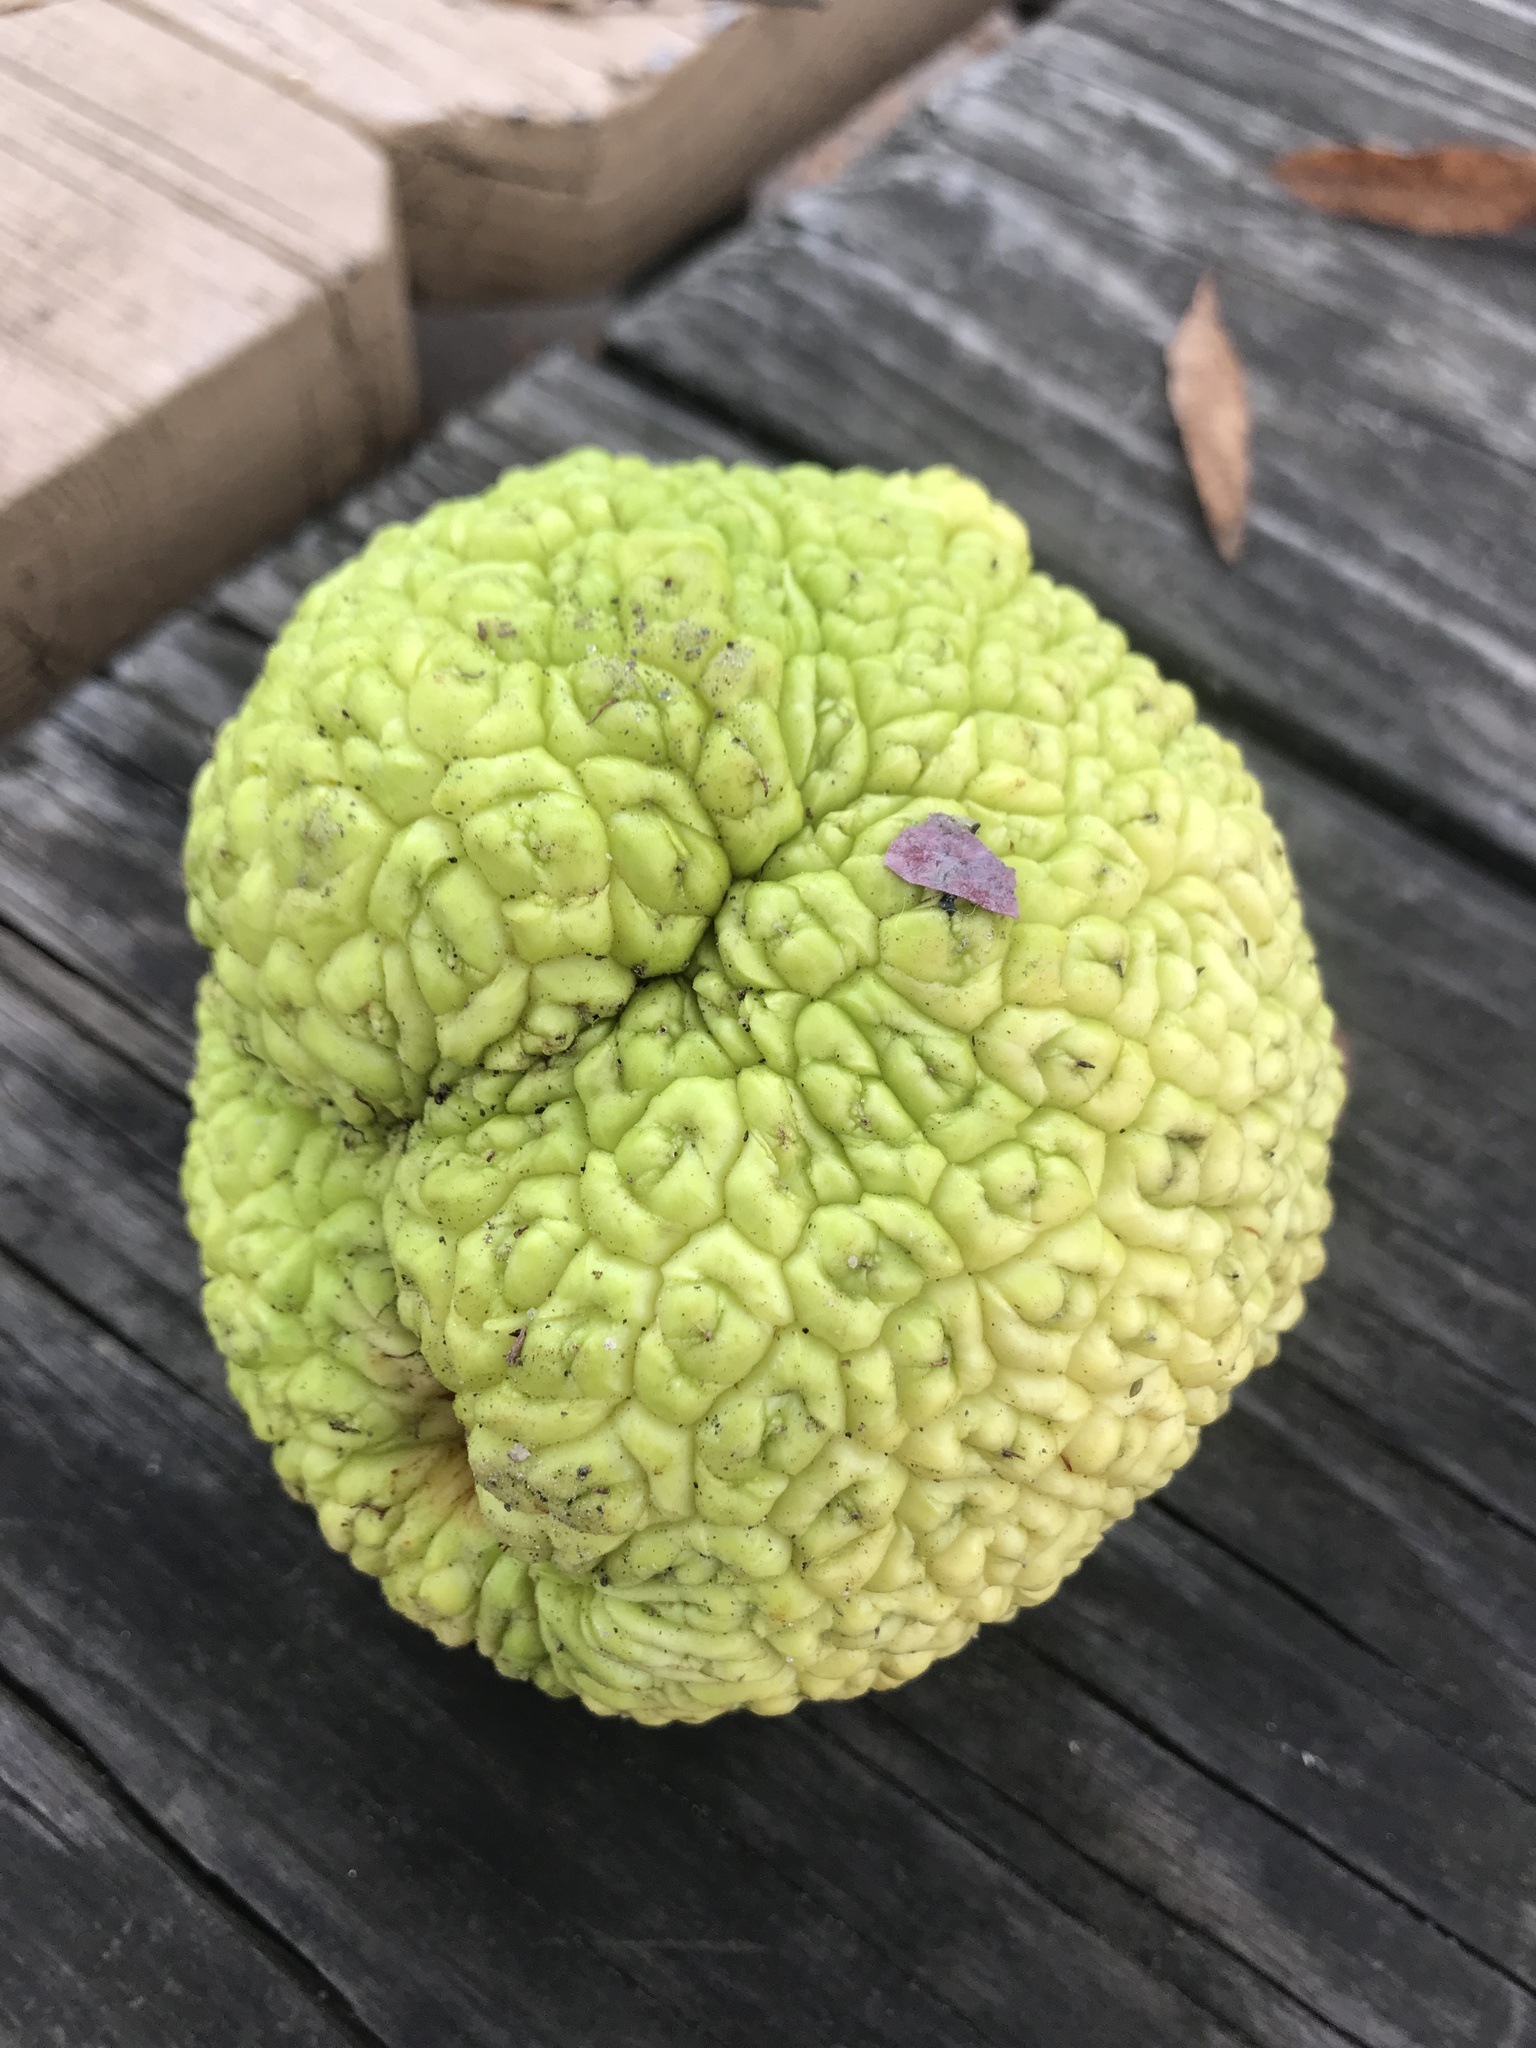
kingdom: Plantae
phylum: Tracheophyta
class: Magnoliopsida
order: Rosales
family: Moraceae
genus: Maclura
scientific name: Maclura pomifera
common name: Osage-orange
